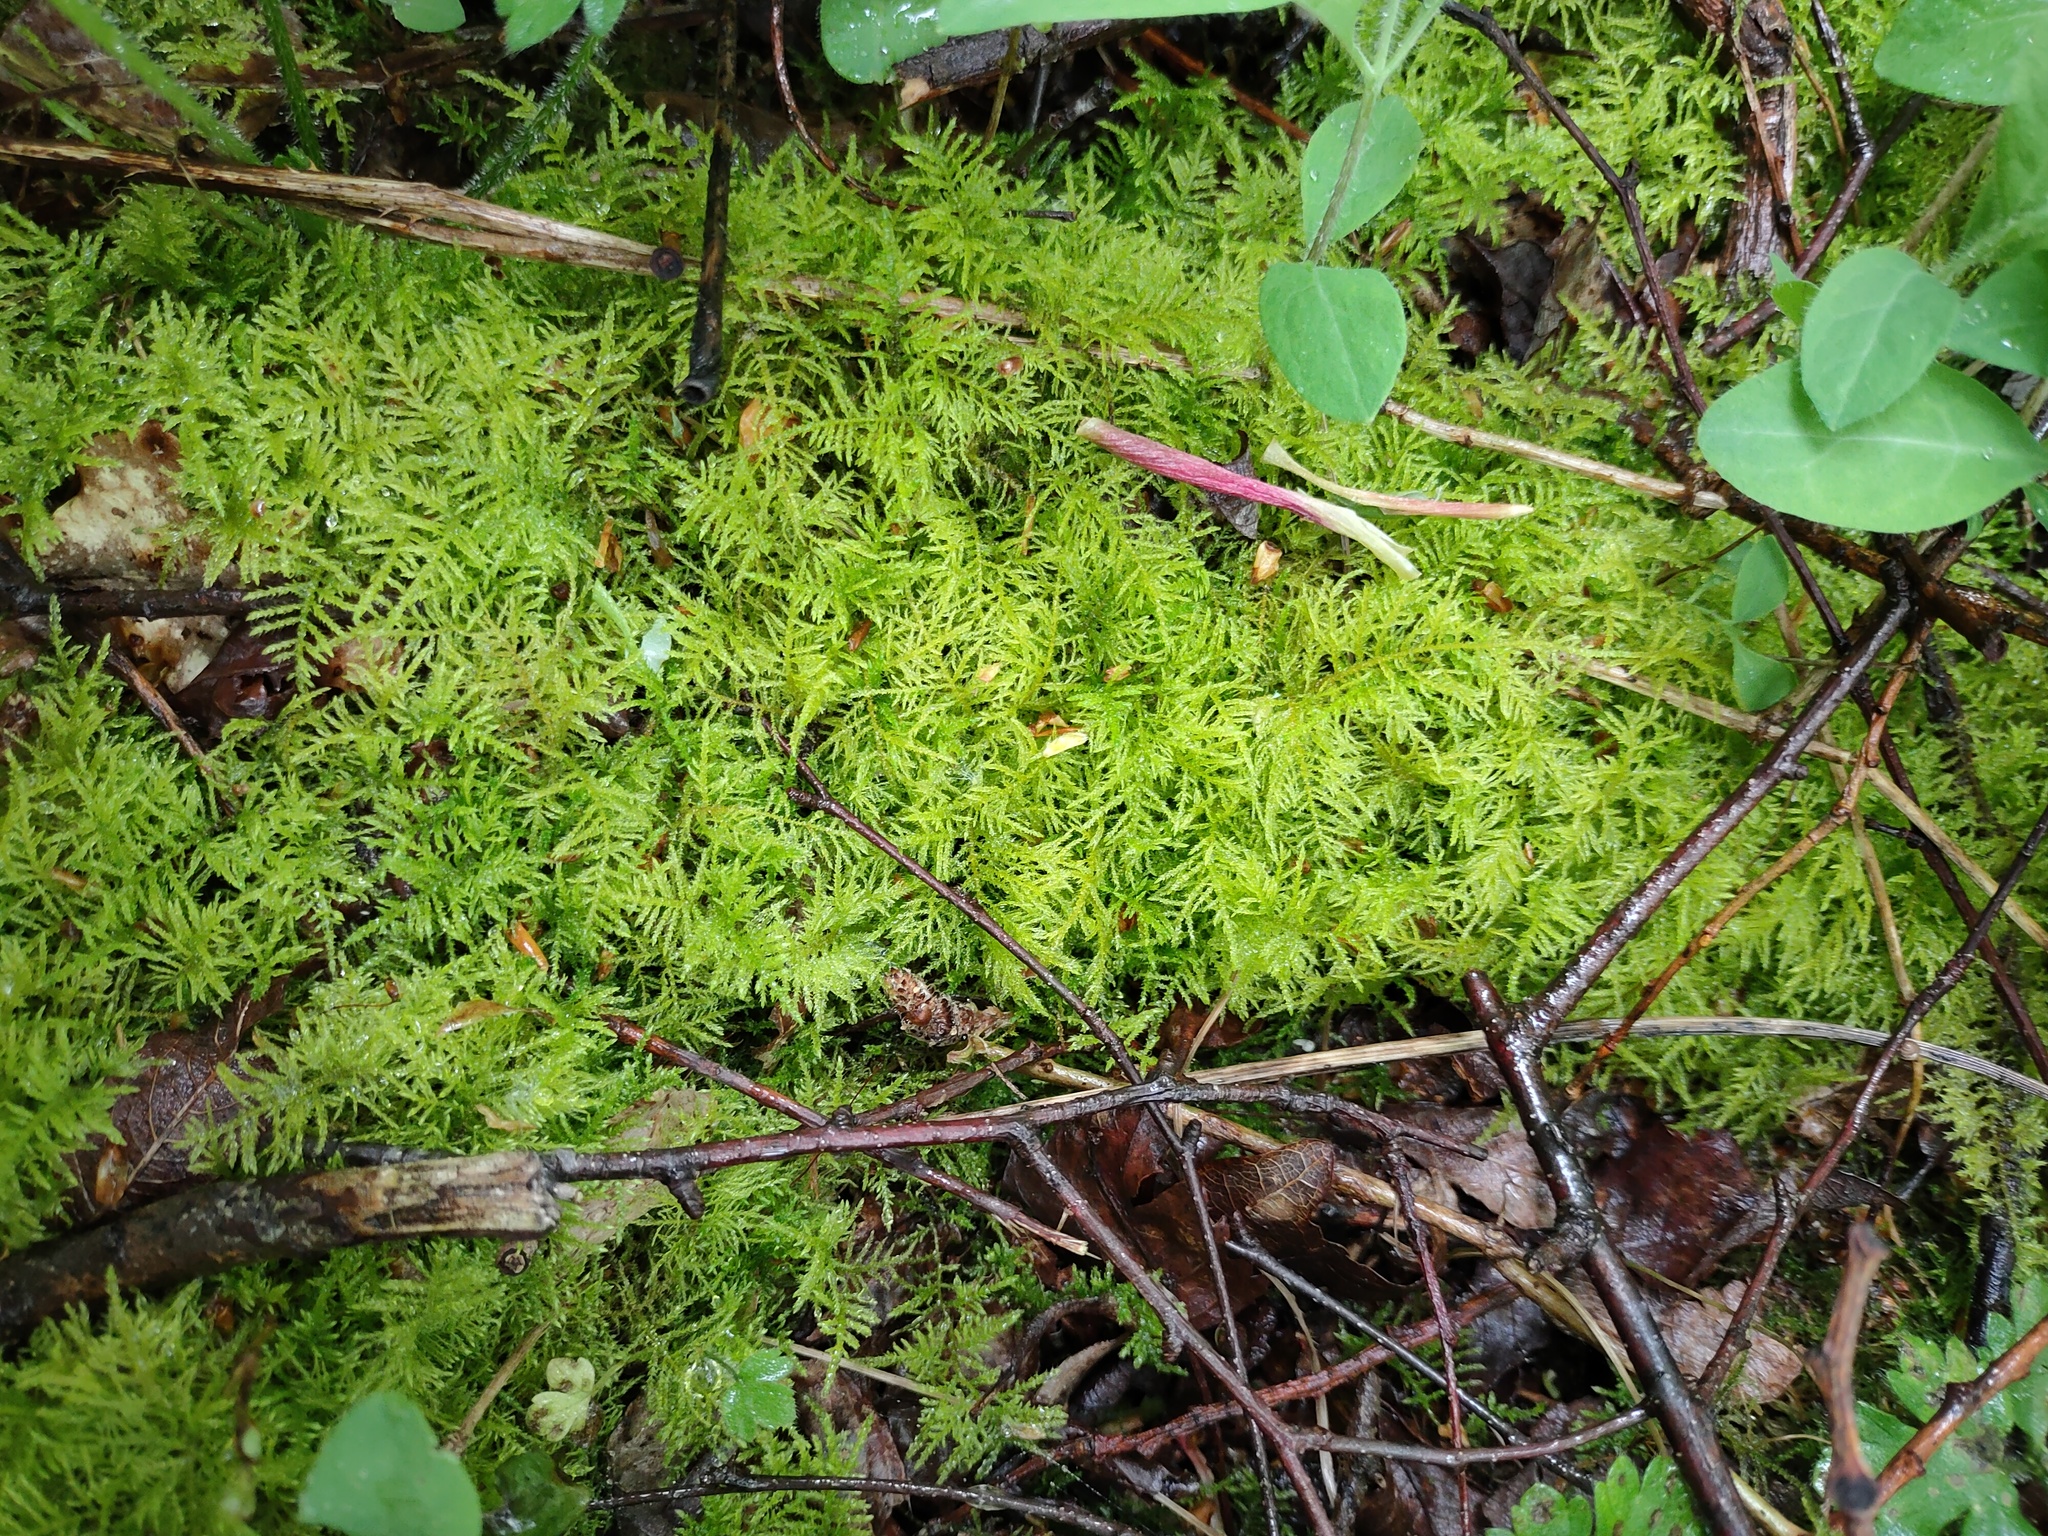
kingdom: Plantae
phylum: Bryophyta
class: Bryopsida
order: Hypnales
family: Brachytheciaceae
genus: Kindbergia
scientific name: Kindbergia praelonga
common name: Slender beaked moss
